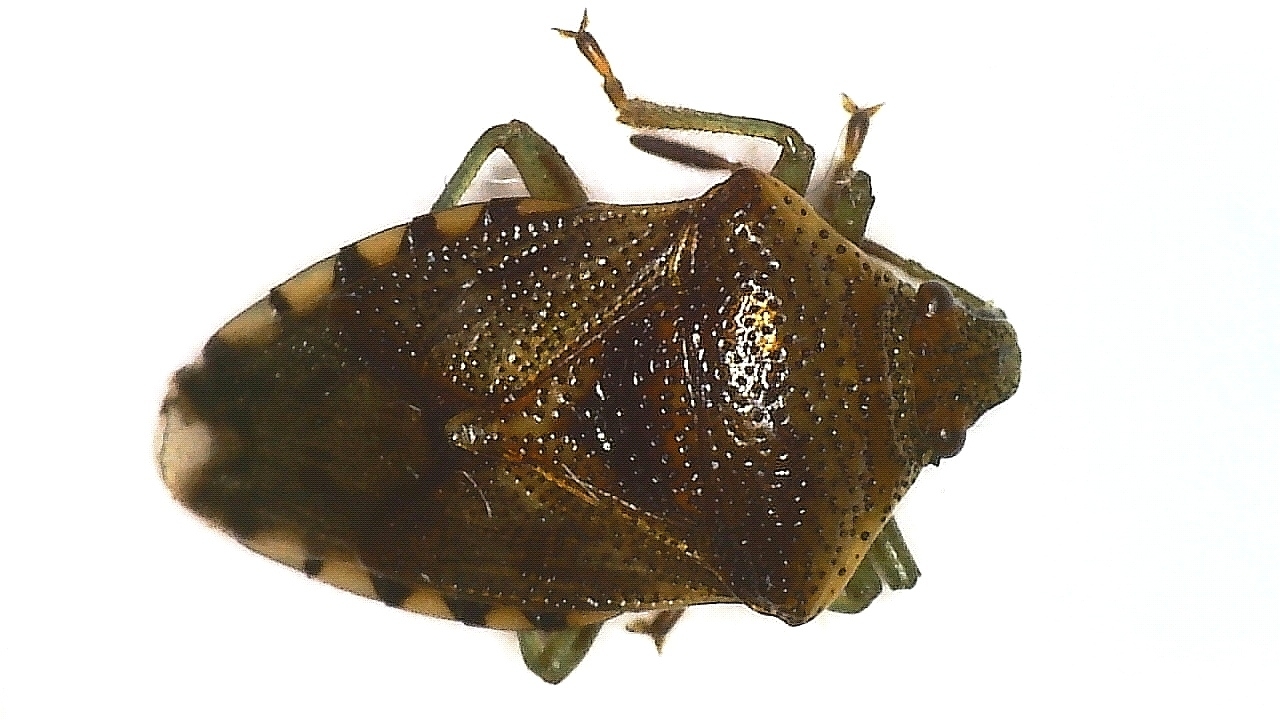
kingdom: Animalia
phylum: Arthropoda
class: Insecta
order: Hemiptera
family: Acanthosomatidae
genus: Elasmucha
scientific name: Elasmucha grisea
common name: Parent bug
